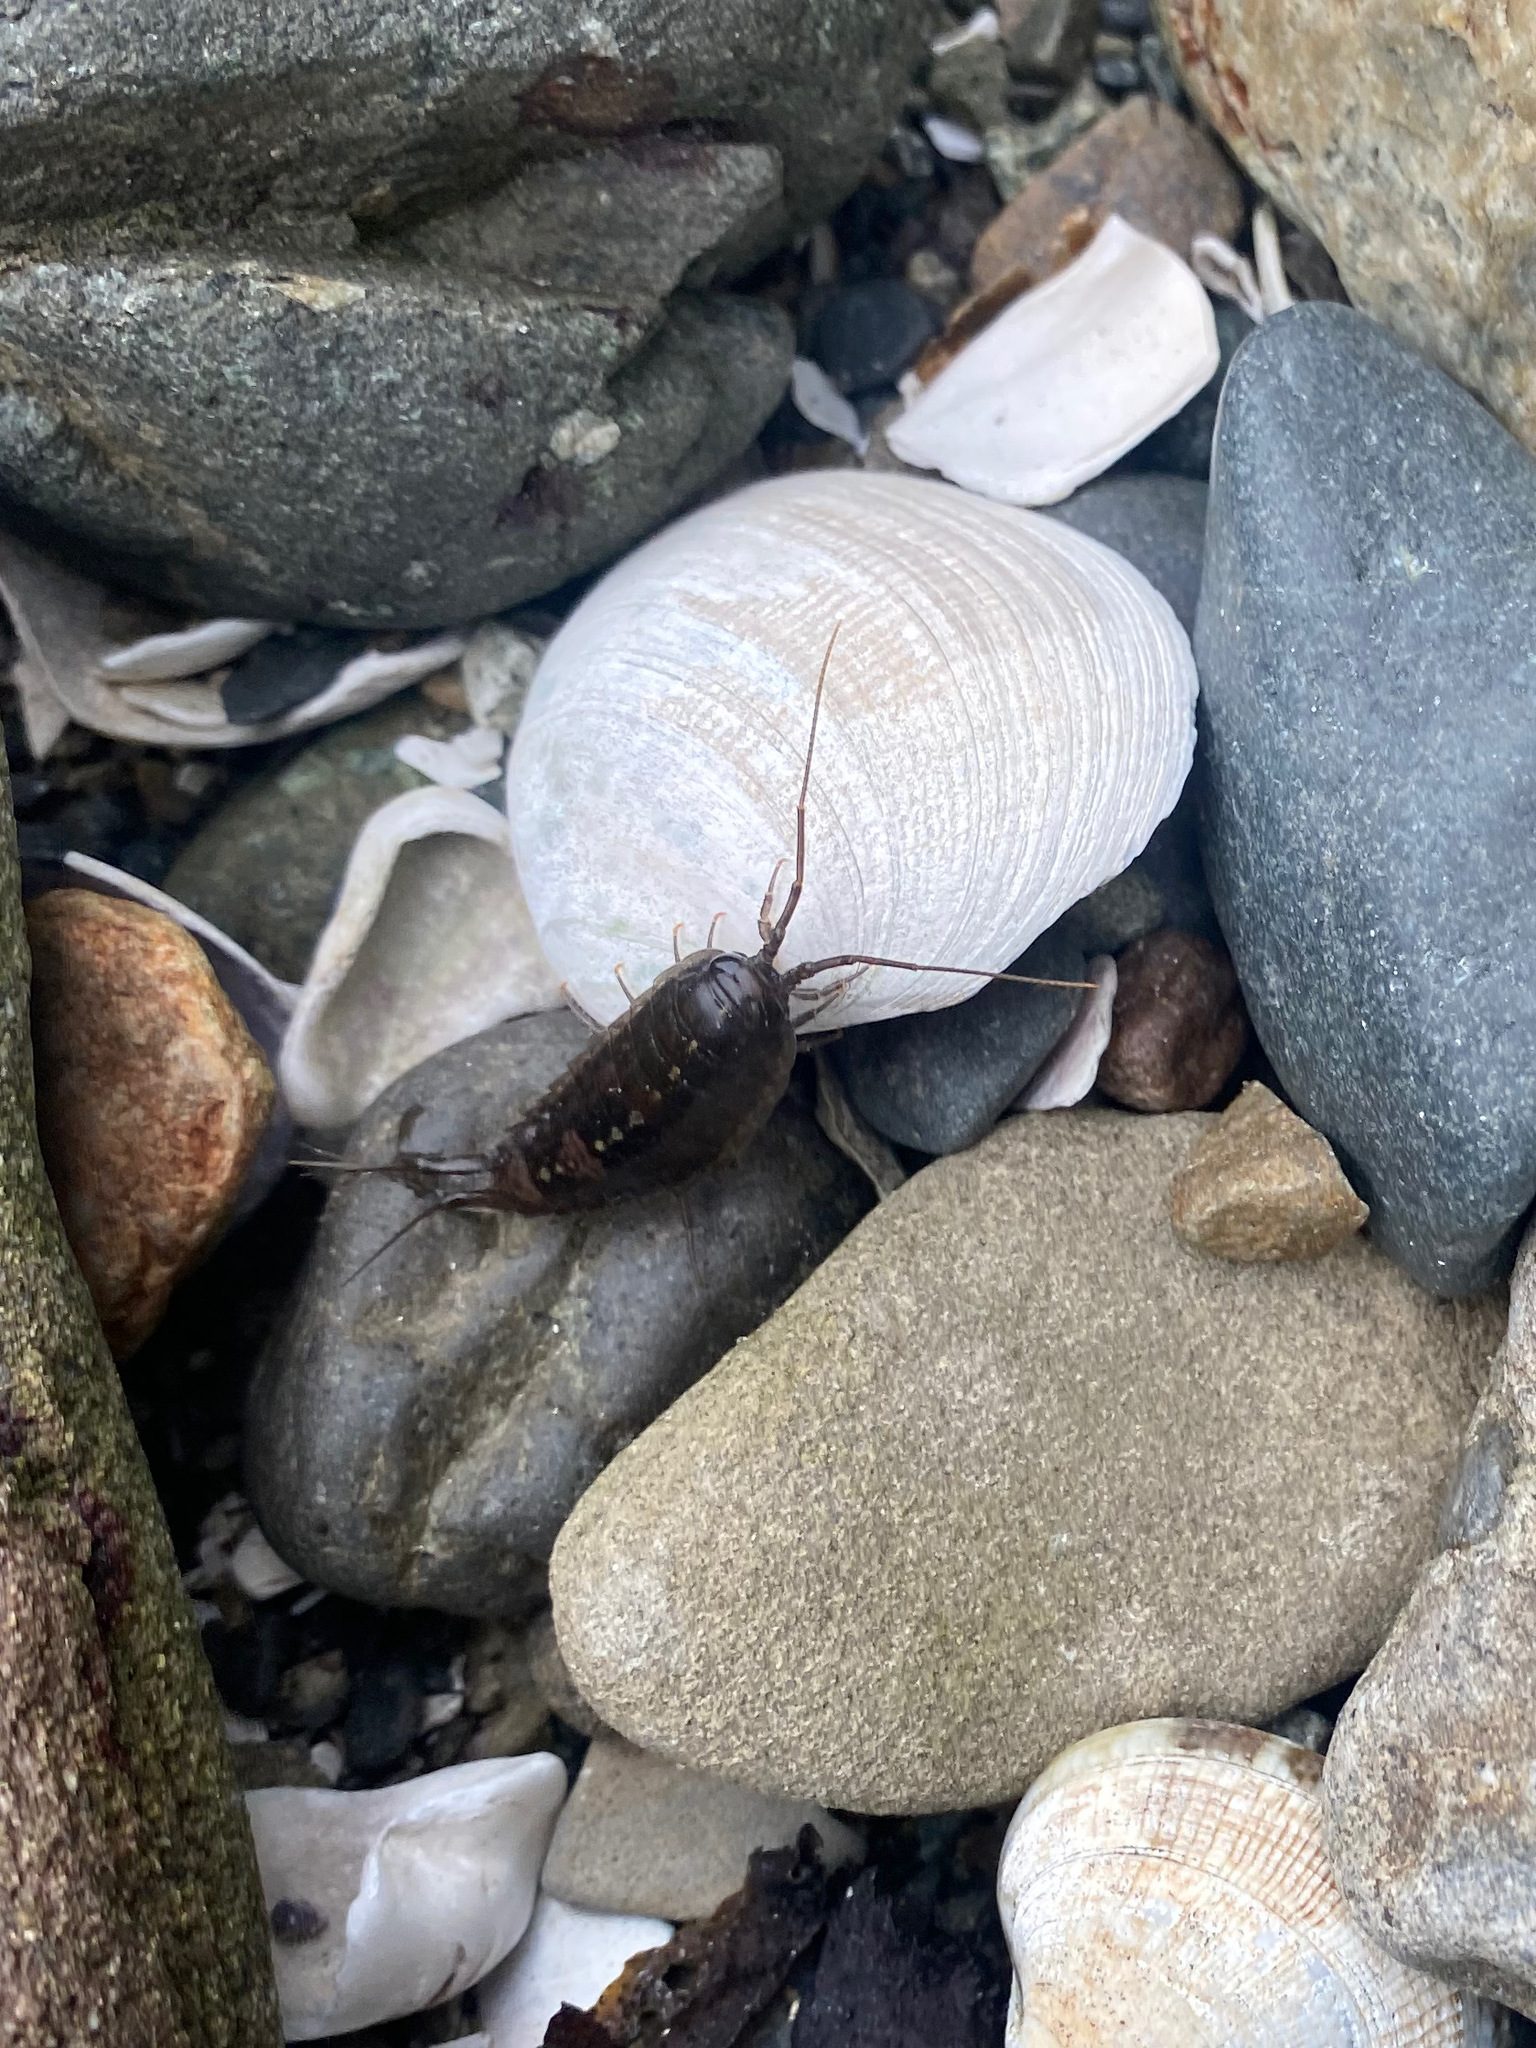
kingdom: Animalia
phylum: Arthropoda
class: Malacostraca
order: Isopoda
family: Ligiidae
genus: Ligia
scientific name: Ligia occidentalis
